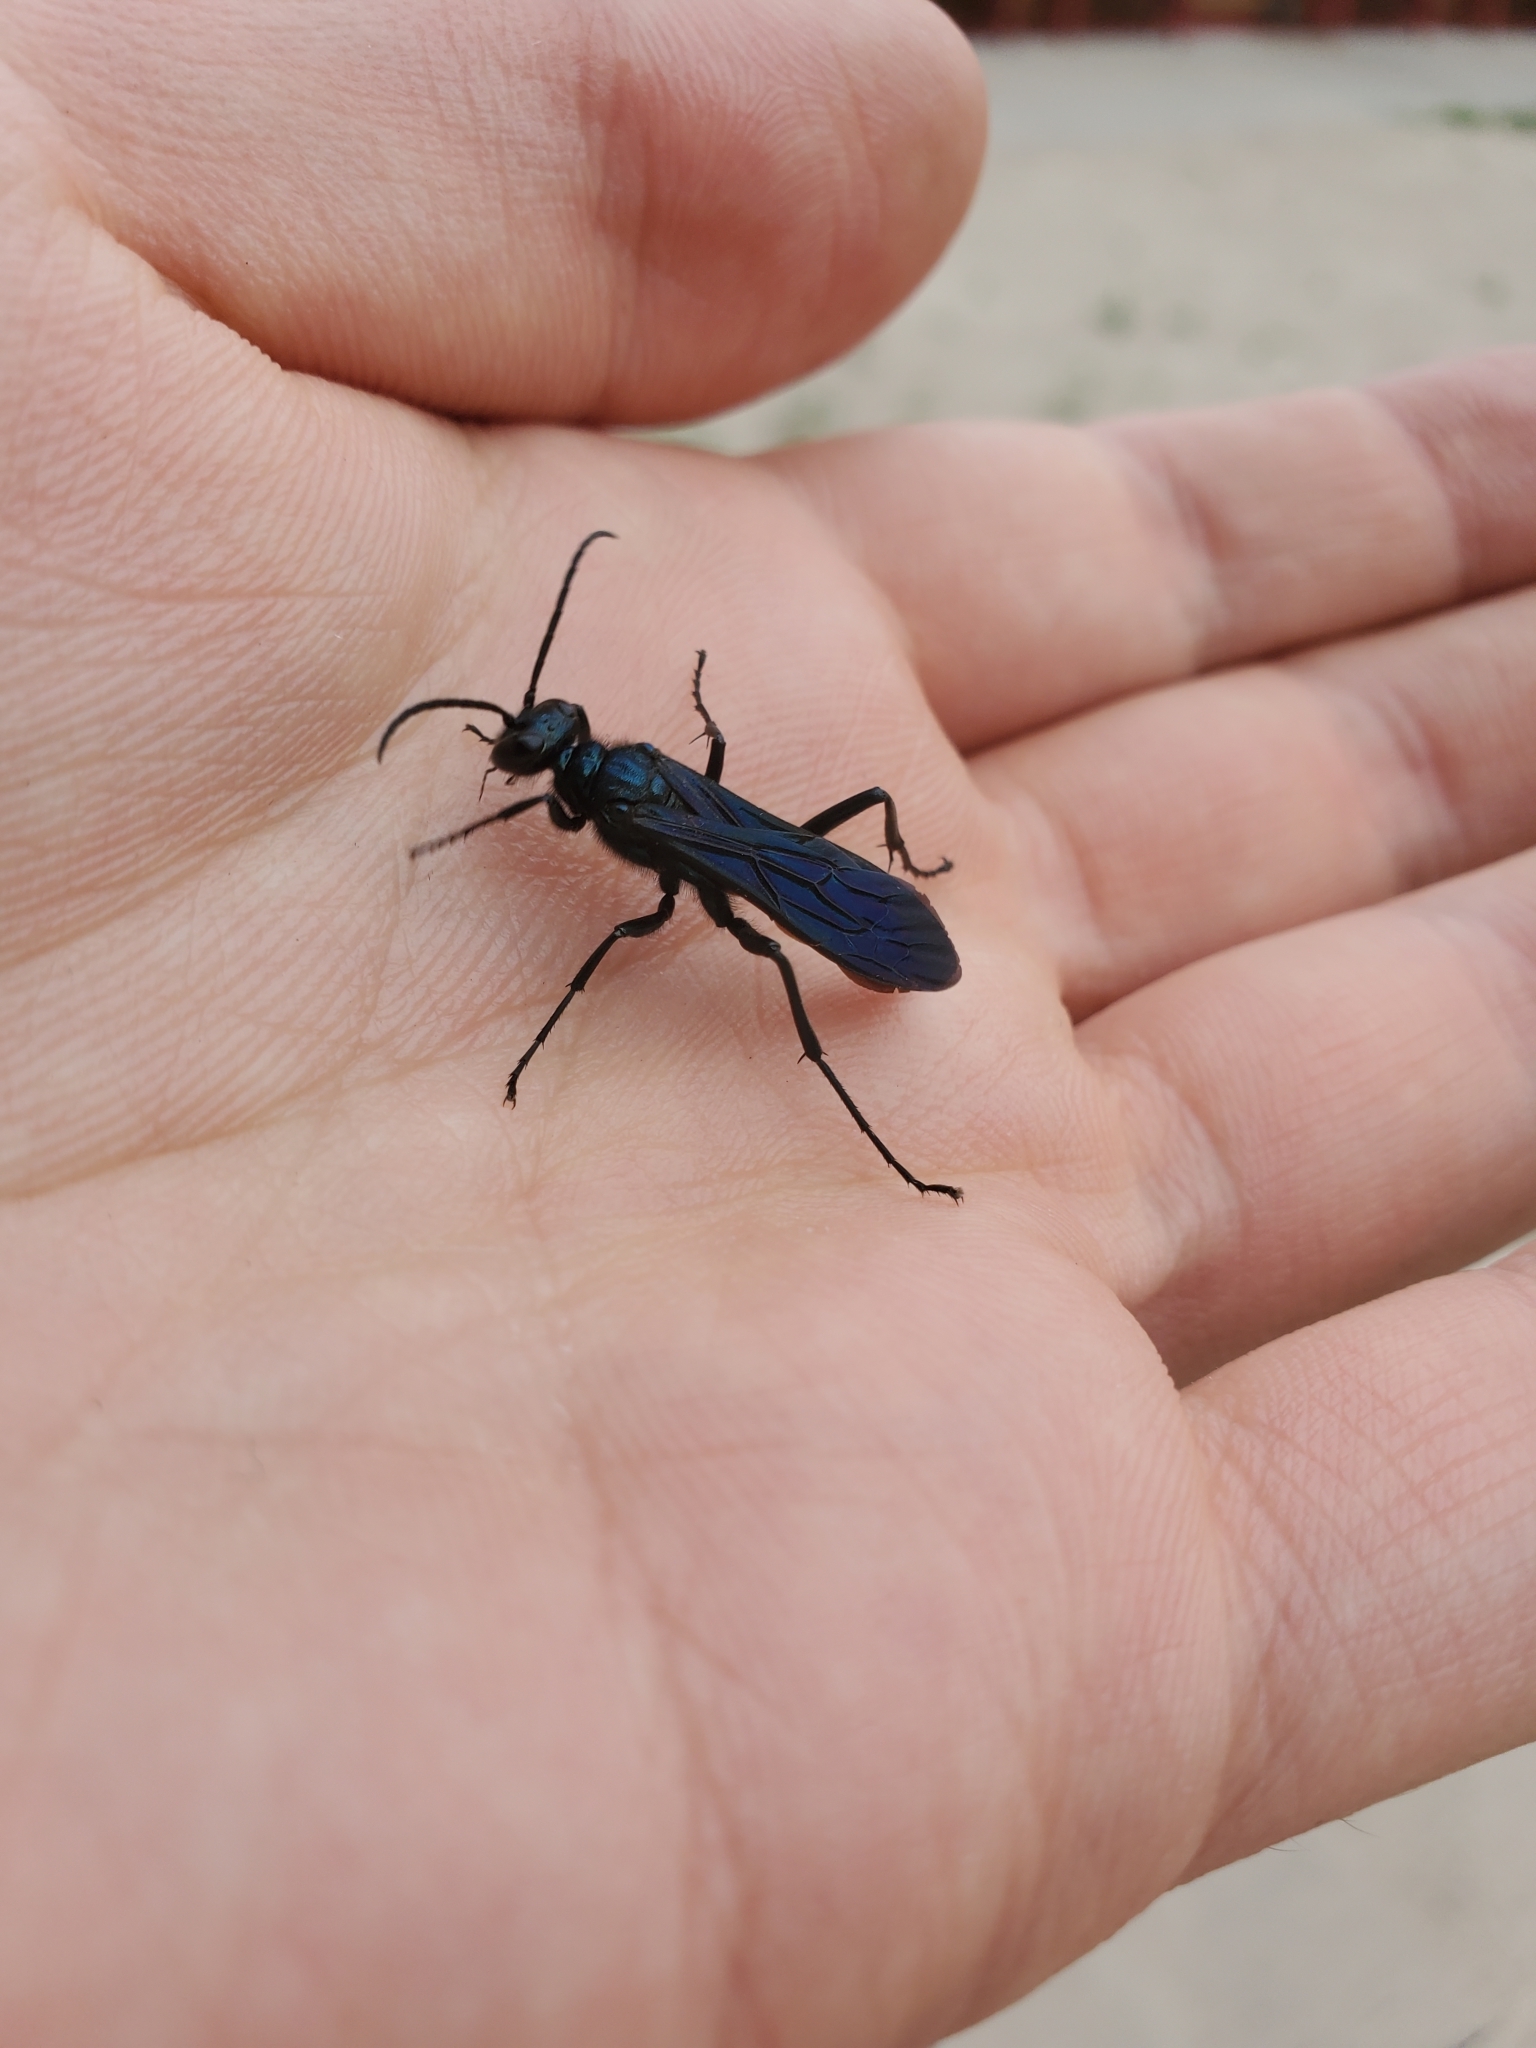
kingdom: Animalia
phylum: Arthropoda
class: Insecta
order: Hymenoptera
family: Sphecidae
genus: Chalybion
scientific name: Chalybion californicum
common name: Mud dauber
